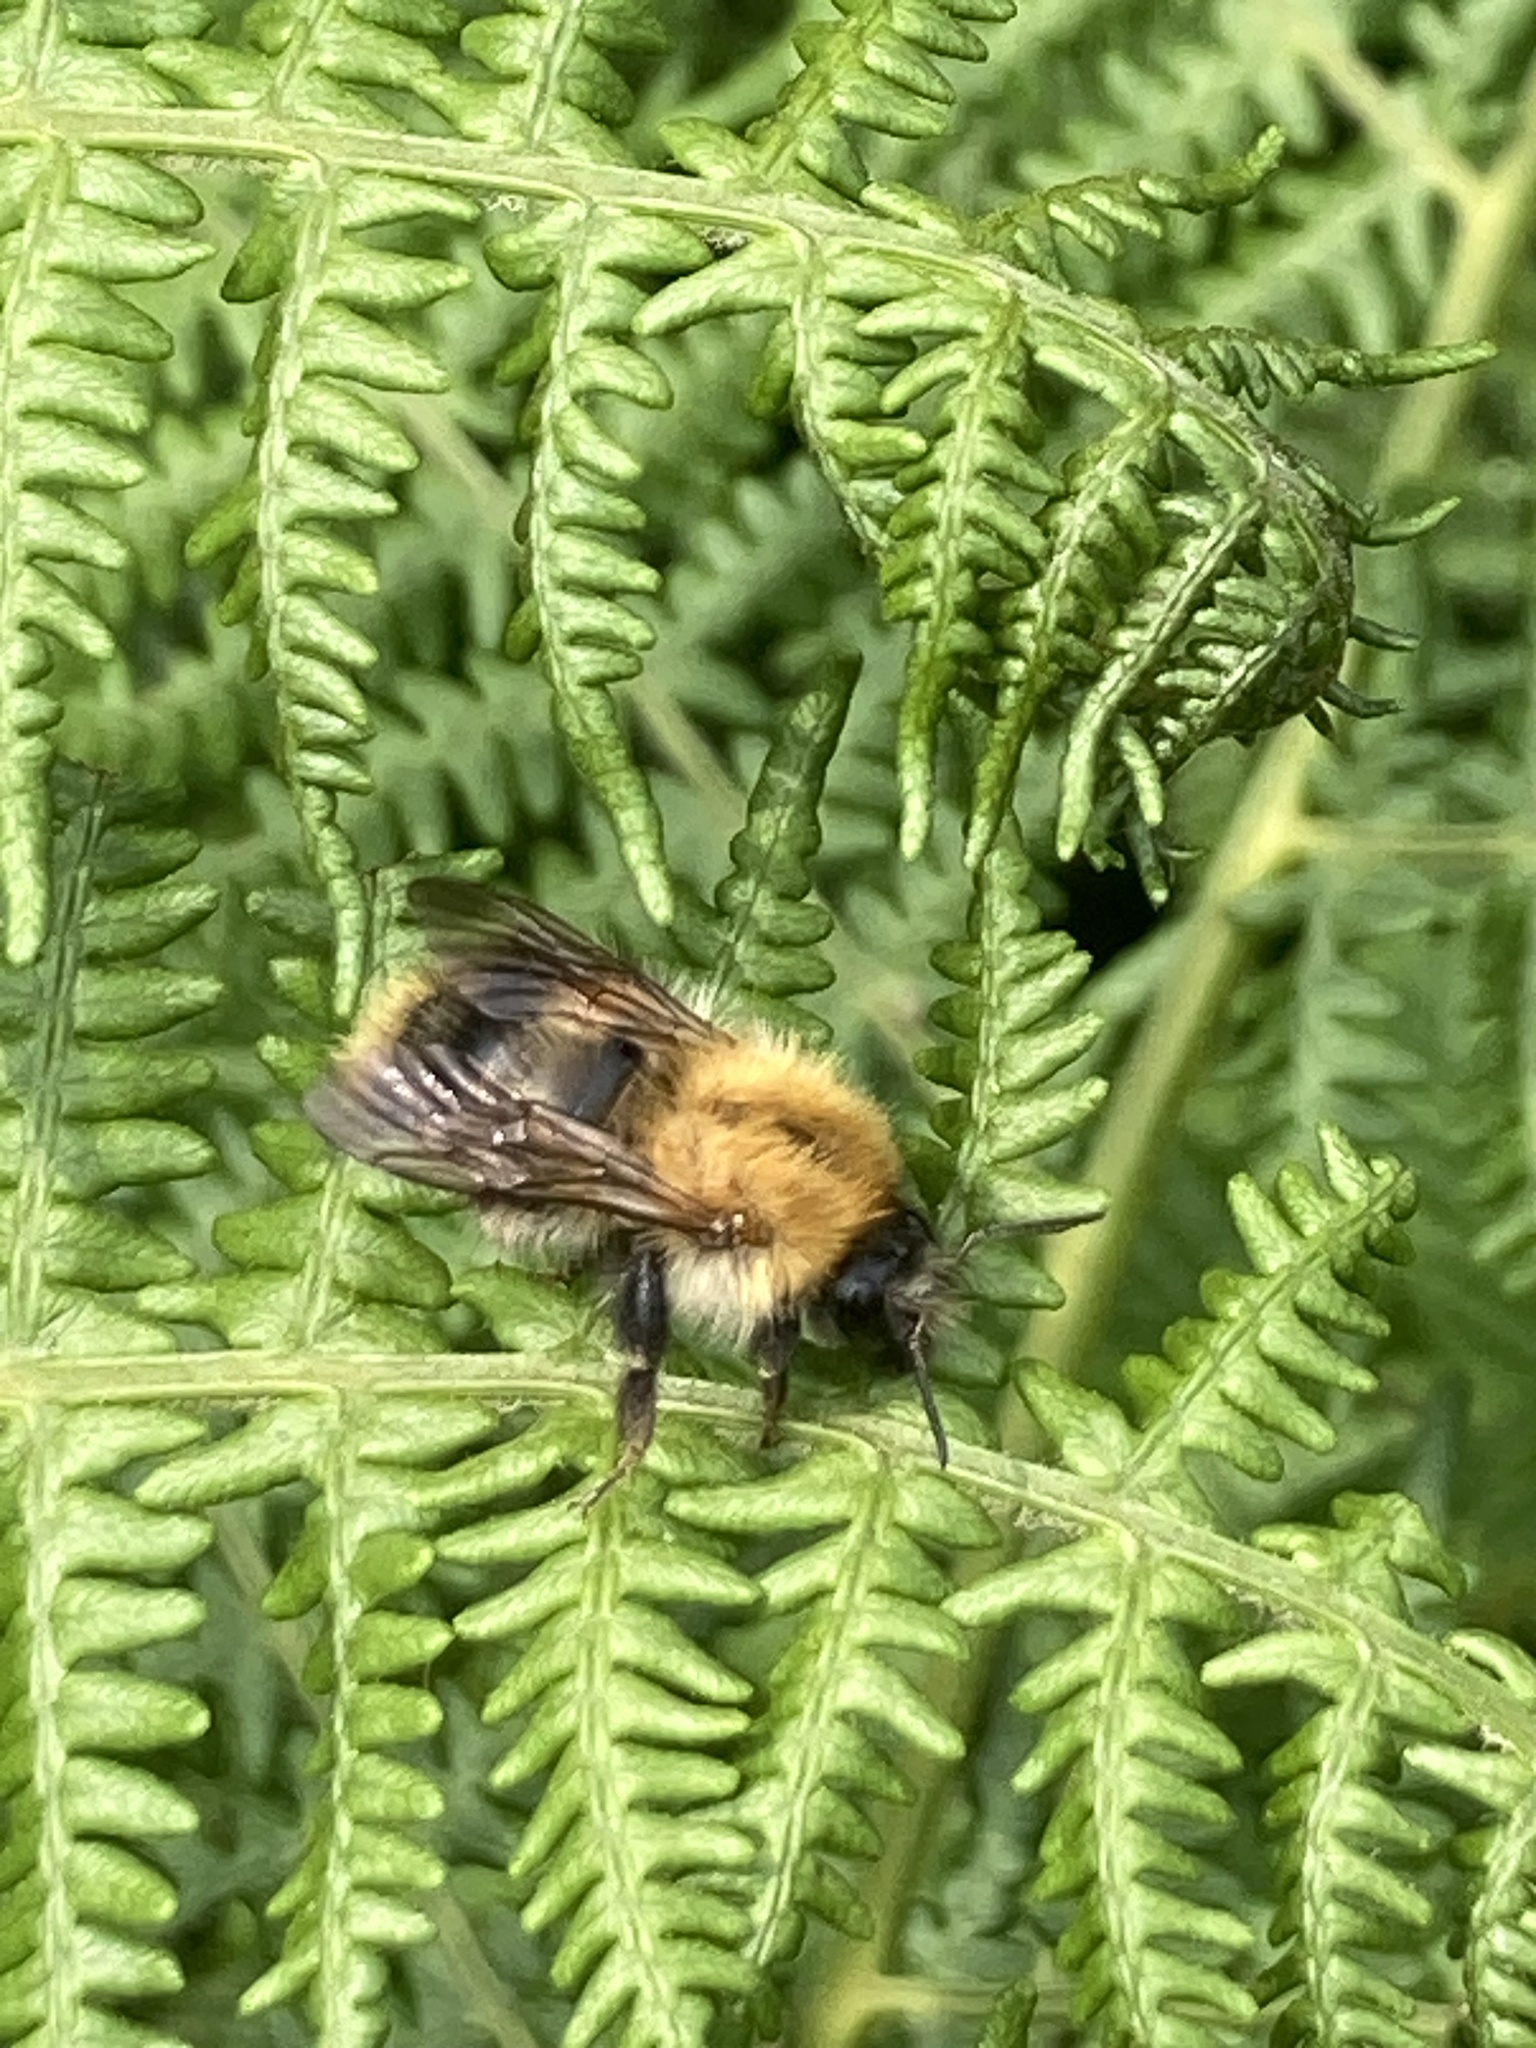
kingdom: Animalia
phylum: Arthropoda
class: Insecta
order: Hymenoptera
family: Apidae
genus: Bombus
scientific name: Bombus pascuorum
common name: Common carder bee
